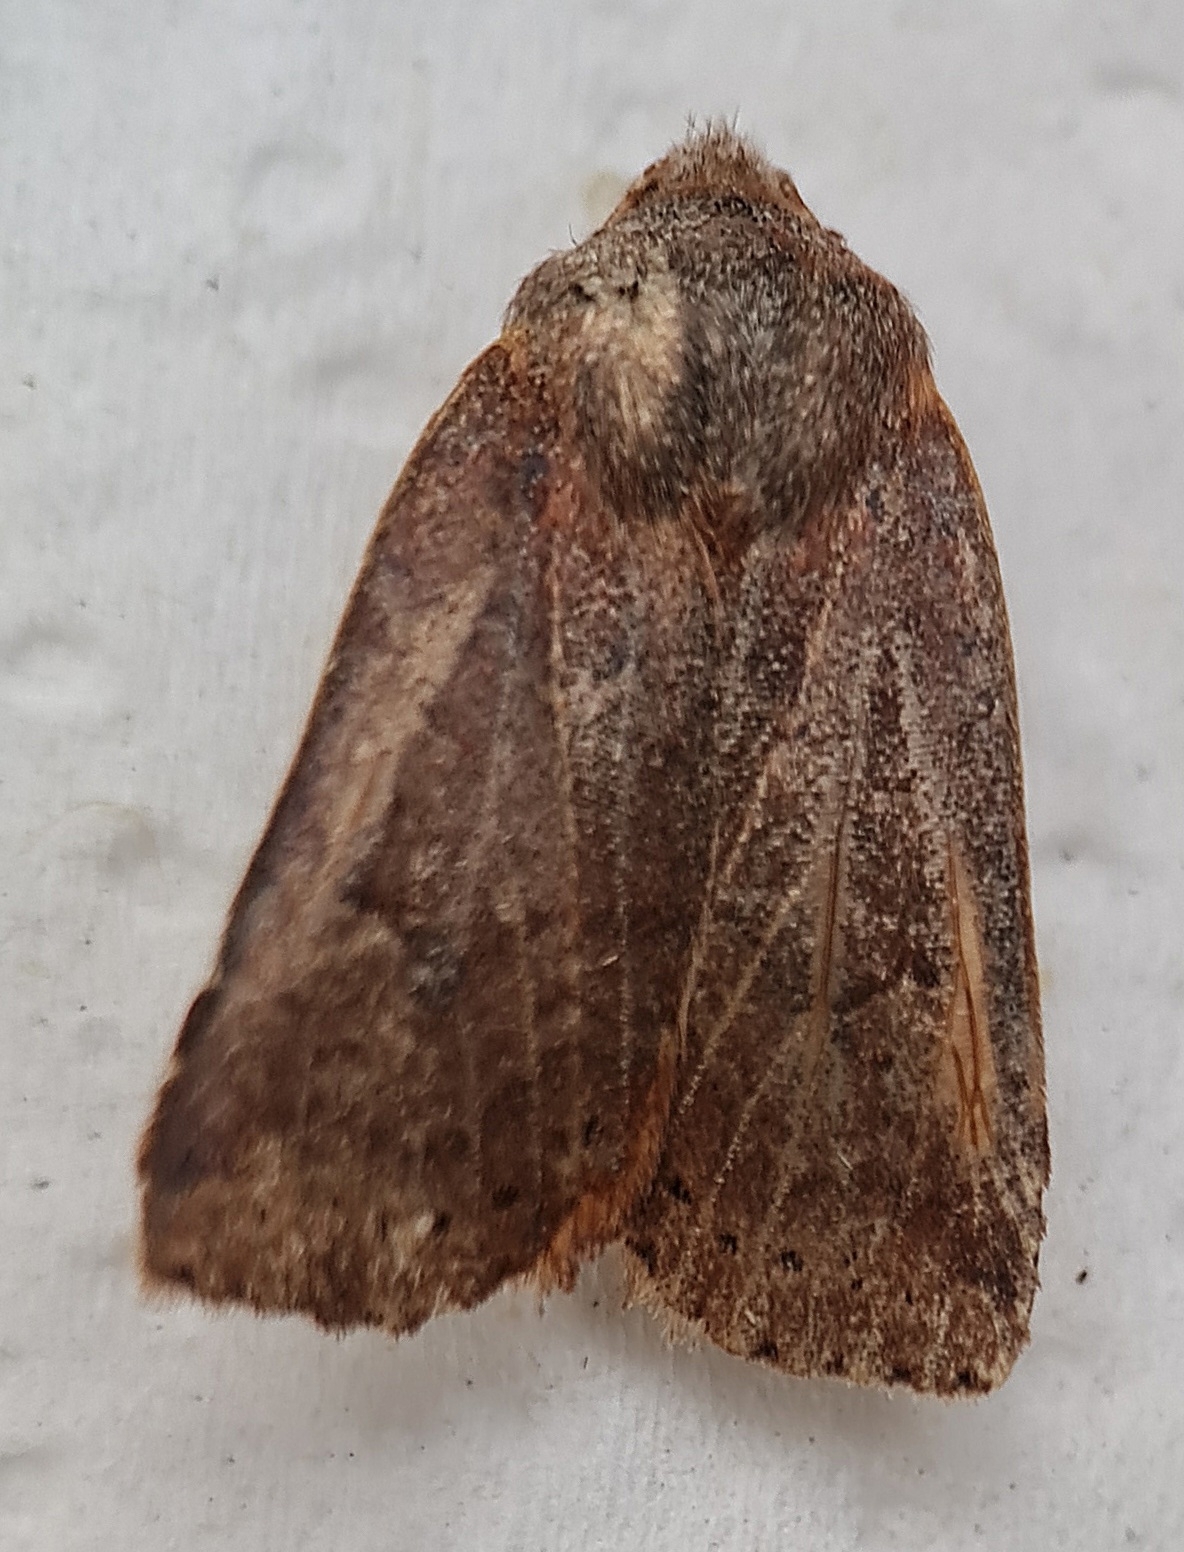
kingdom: Animalia
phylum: Arthropoda
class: Insecta
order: Lepidoptera
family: Noctuidae
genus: Conistra
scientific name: Conistra vaccinii
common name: Chestnut
